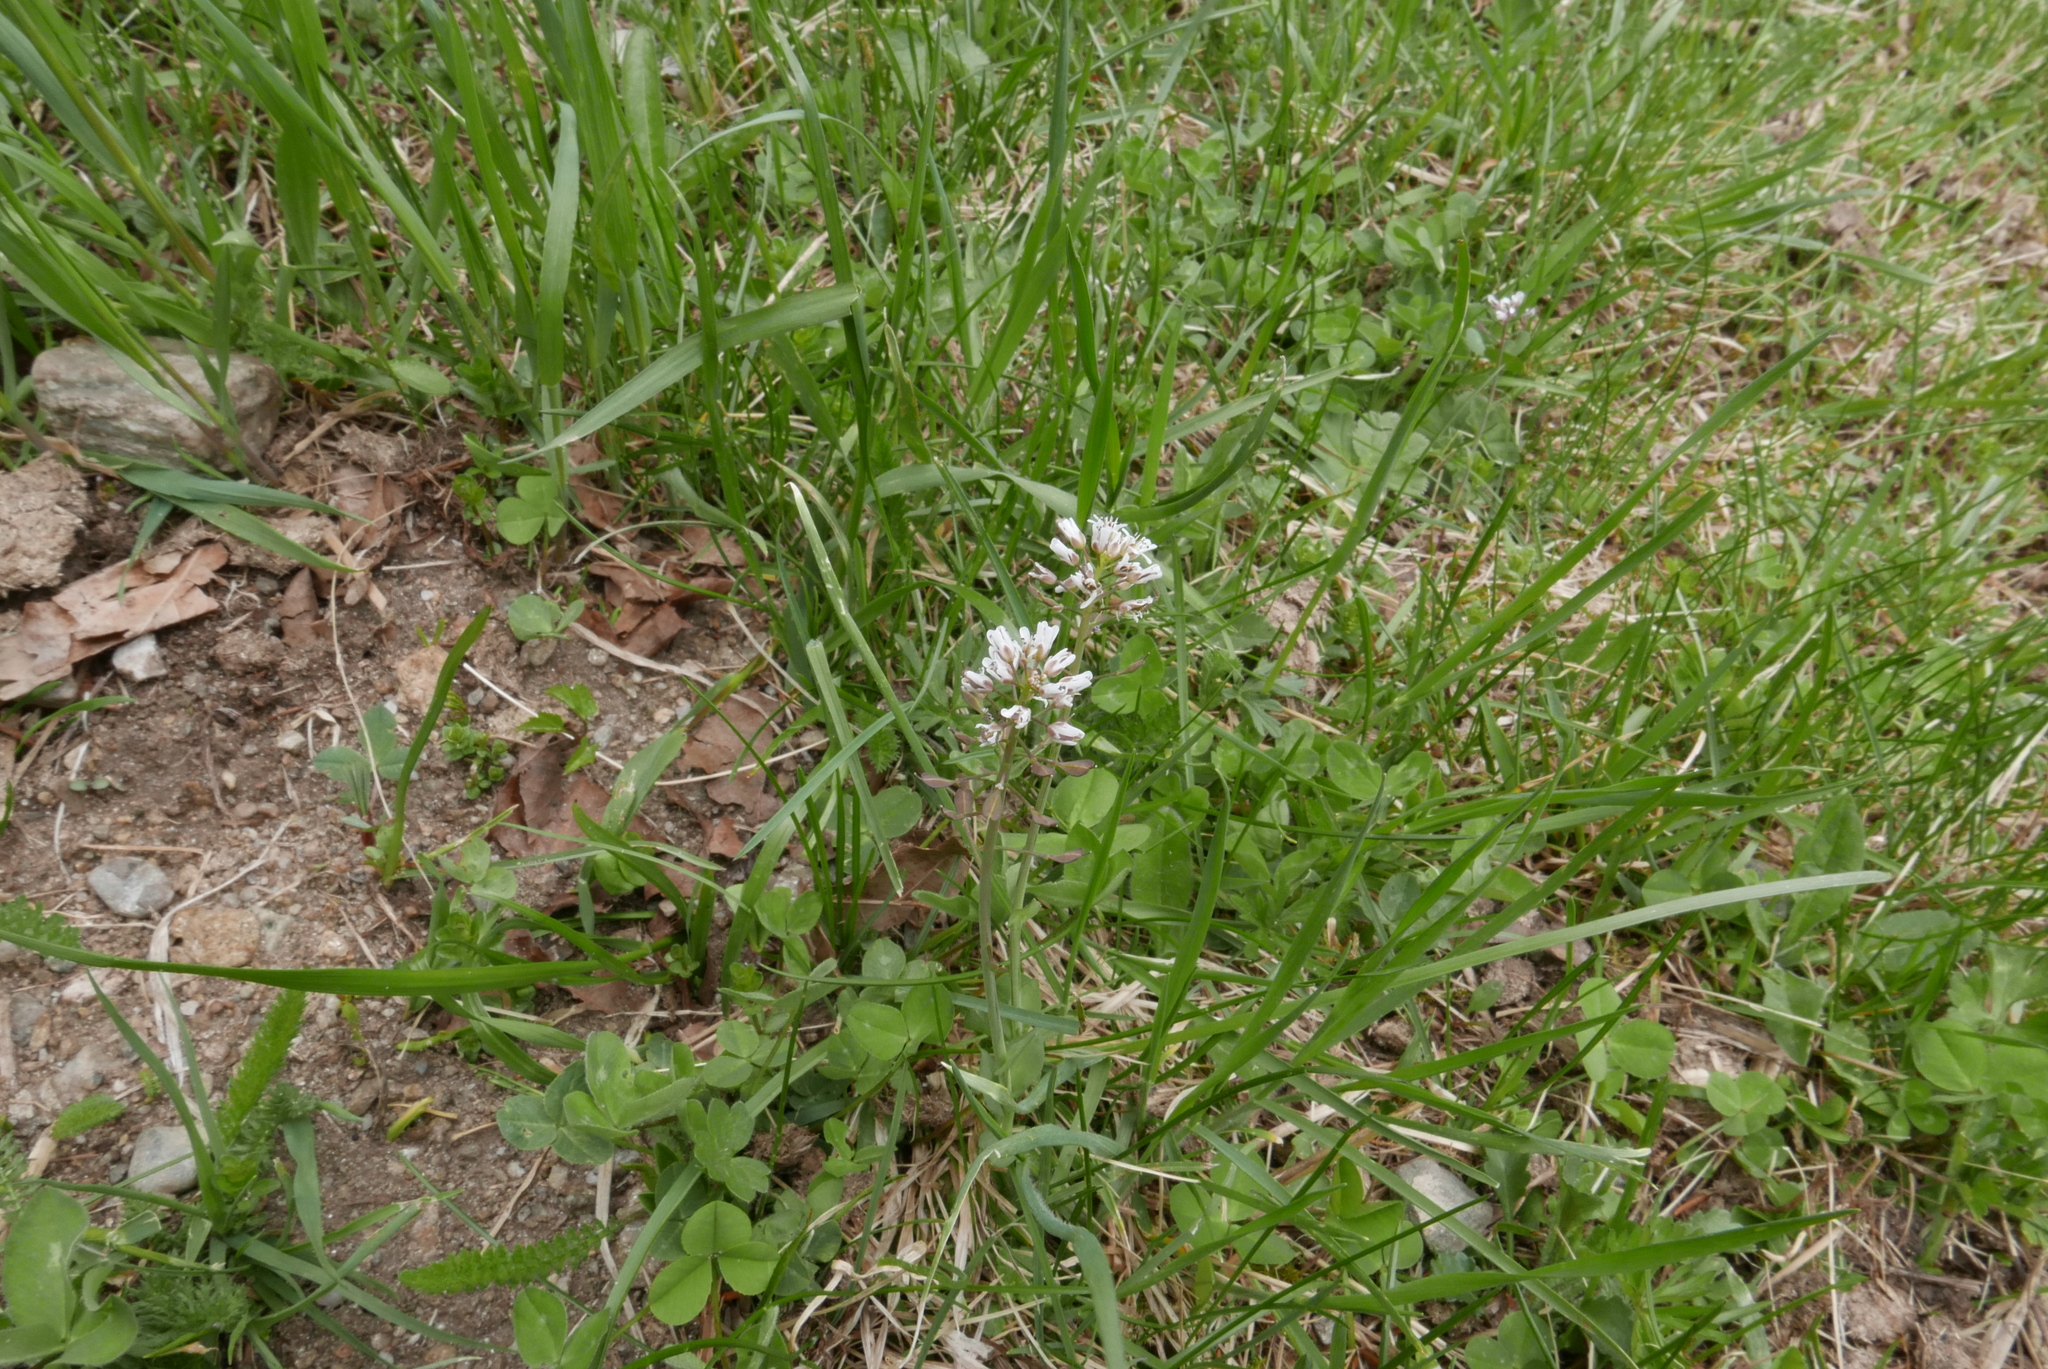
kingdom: Plantae
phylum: Tracheophyta
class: Magnoliopsida
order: Brassicales
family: Brassicaceae
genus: Noccaea
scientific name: Noccaea caerulescens
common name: Alpine pennycress
